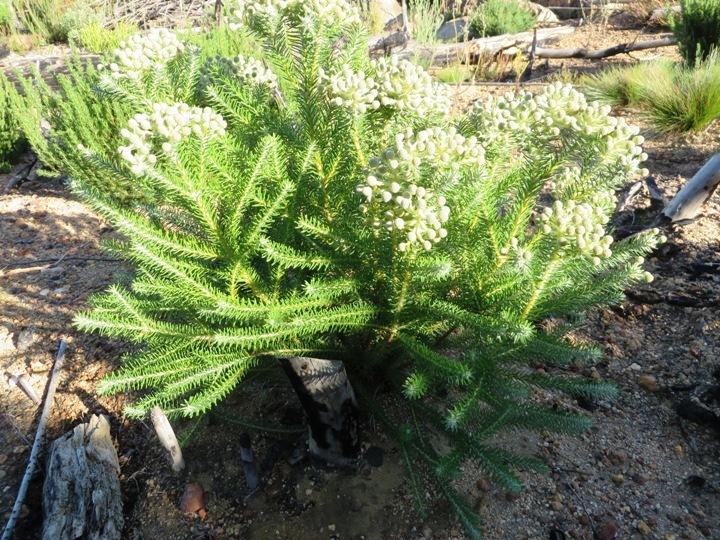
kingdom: Plantae
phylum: Tracheophyta
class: Magnoliopsida
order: Bruniales
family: Bruniaceae
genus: Berzelia
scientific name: Berzelia squarrosa
